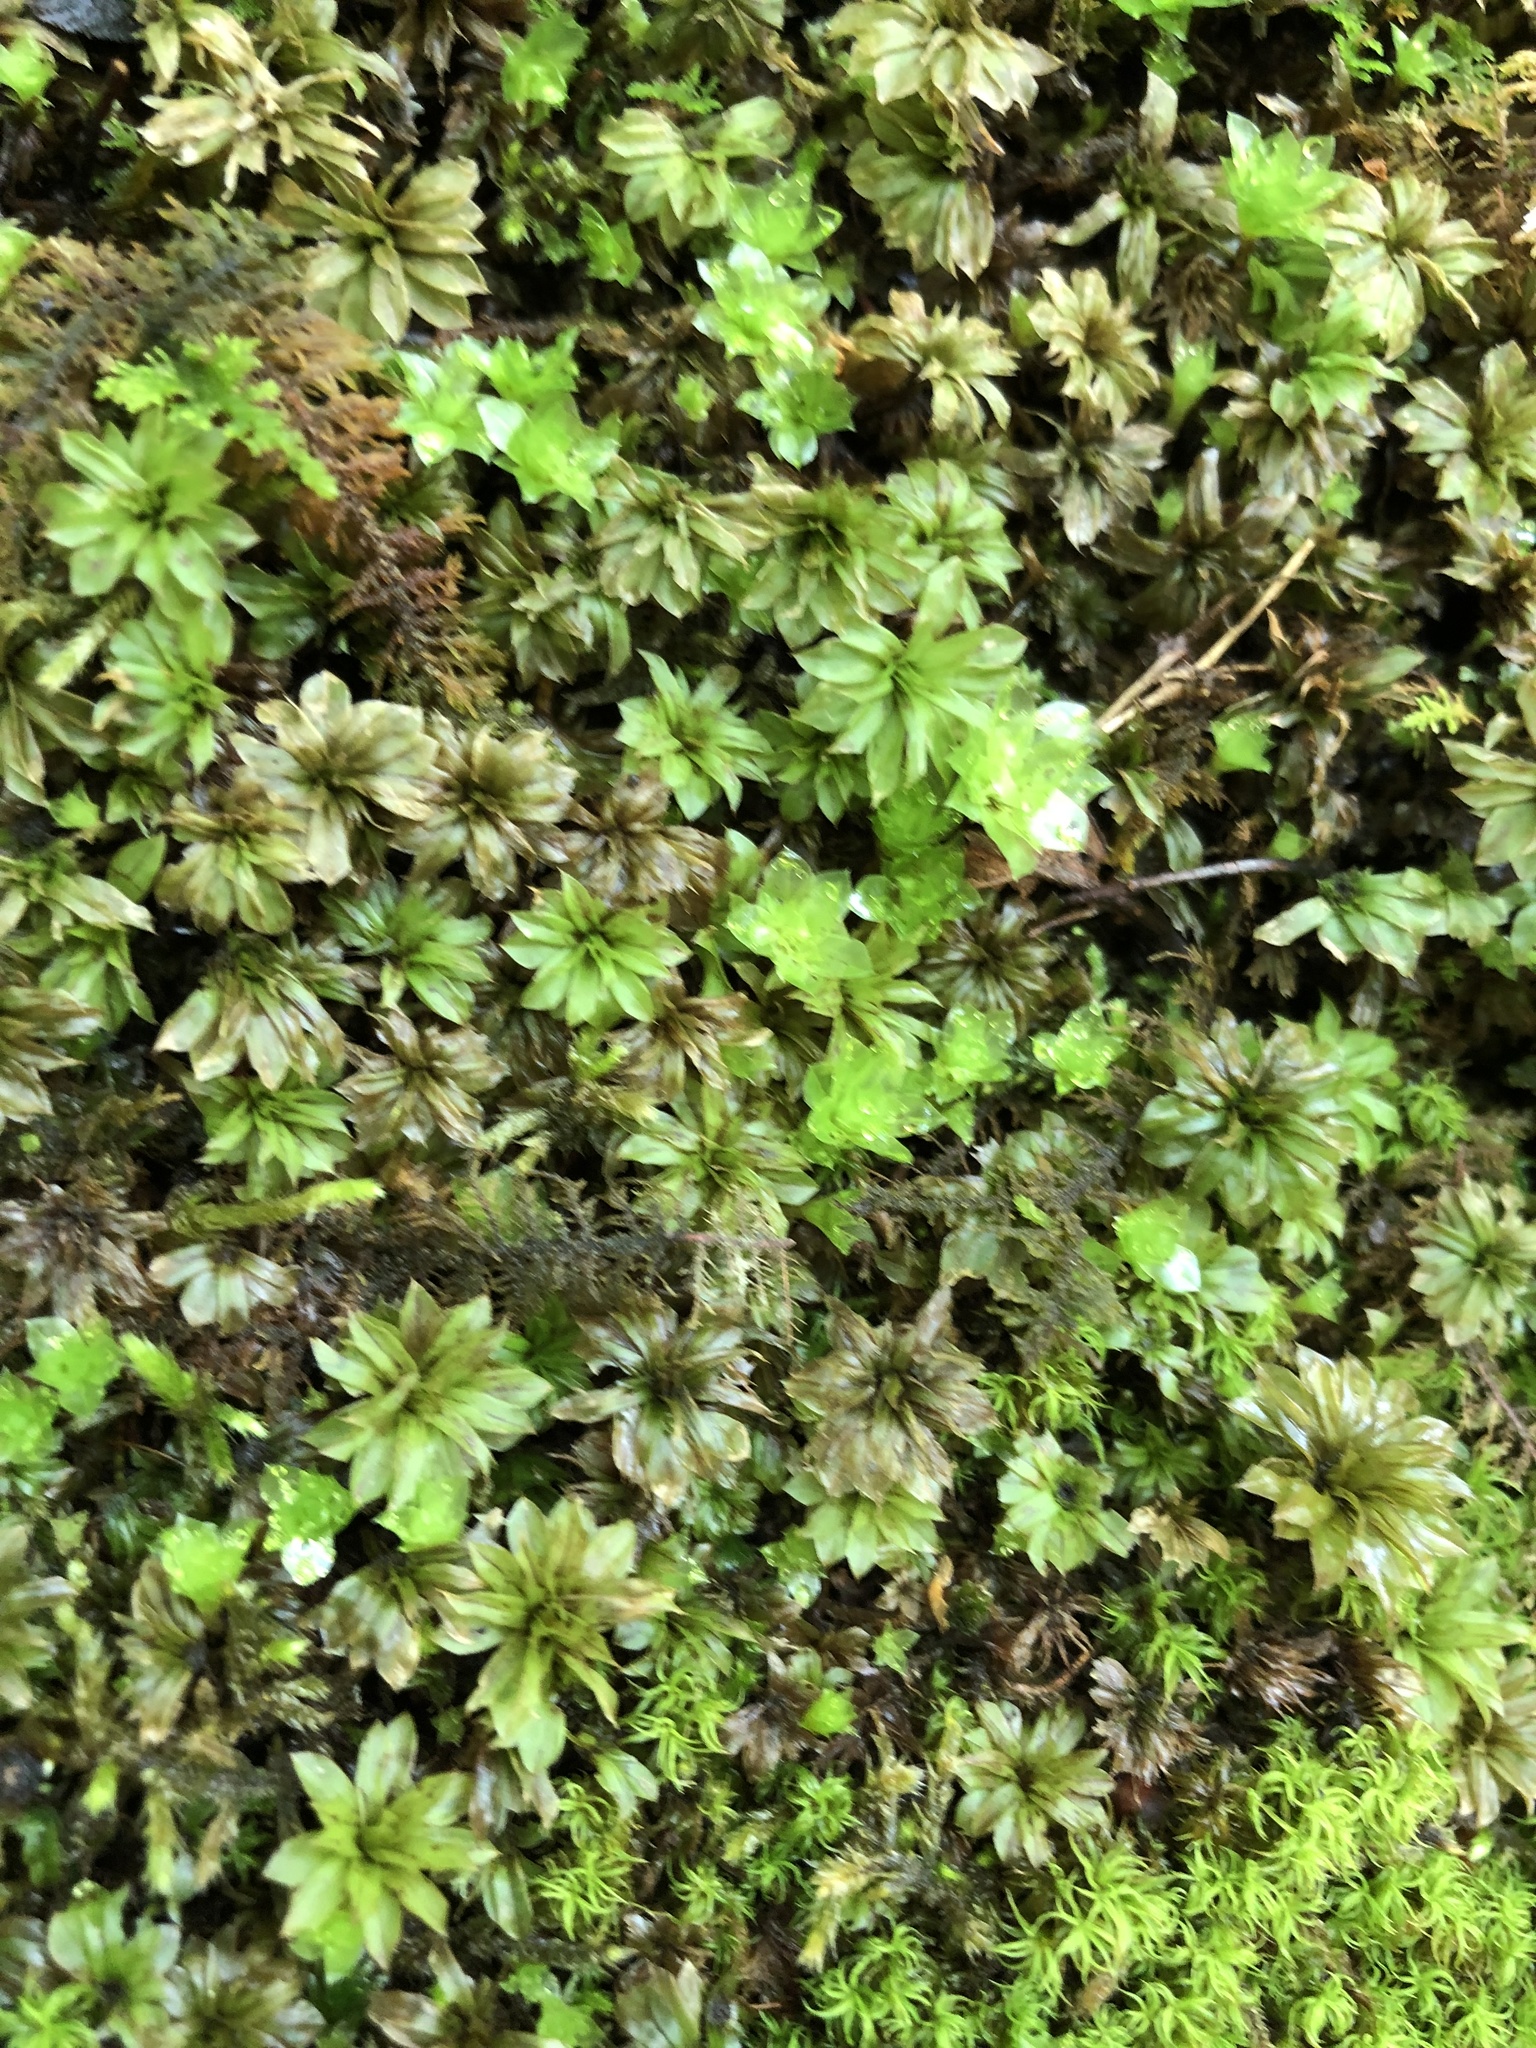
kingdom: Plantae
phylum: Bryophyta
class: Bryopsida
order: Bryales
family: Bryaceae
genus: Rhodobryum
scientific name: Rhodobryum ontariense
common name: Ontario rhodobryum moss
